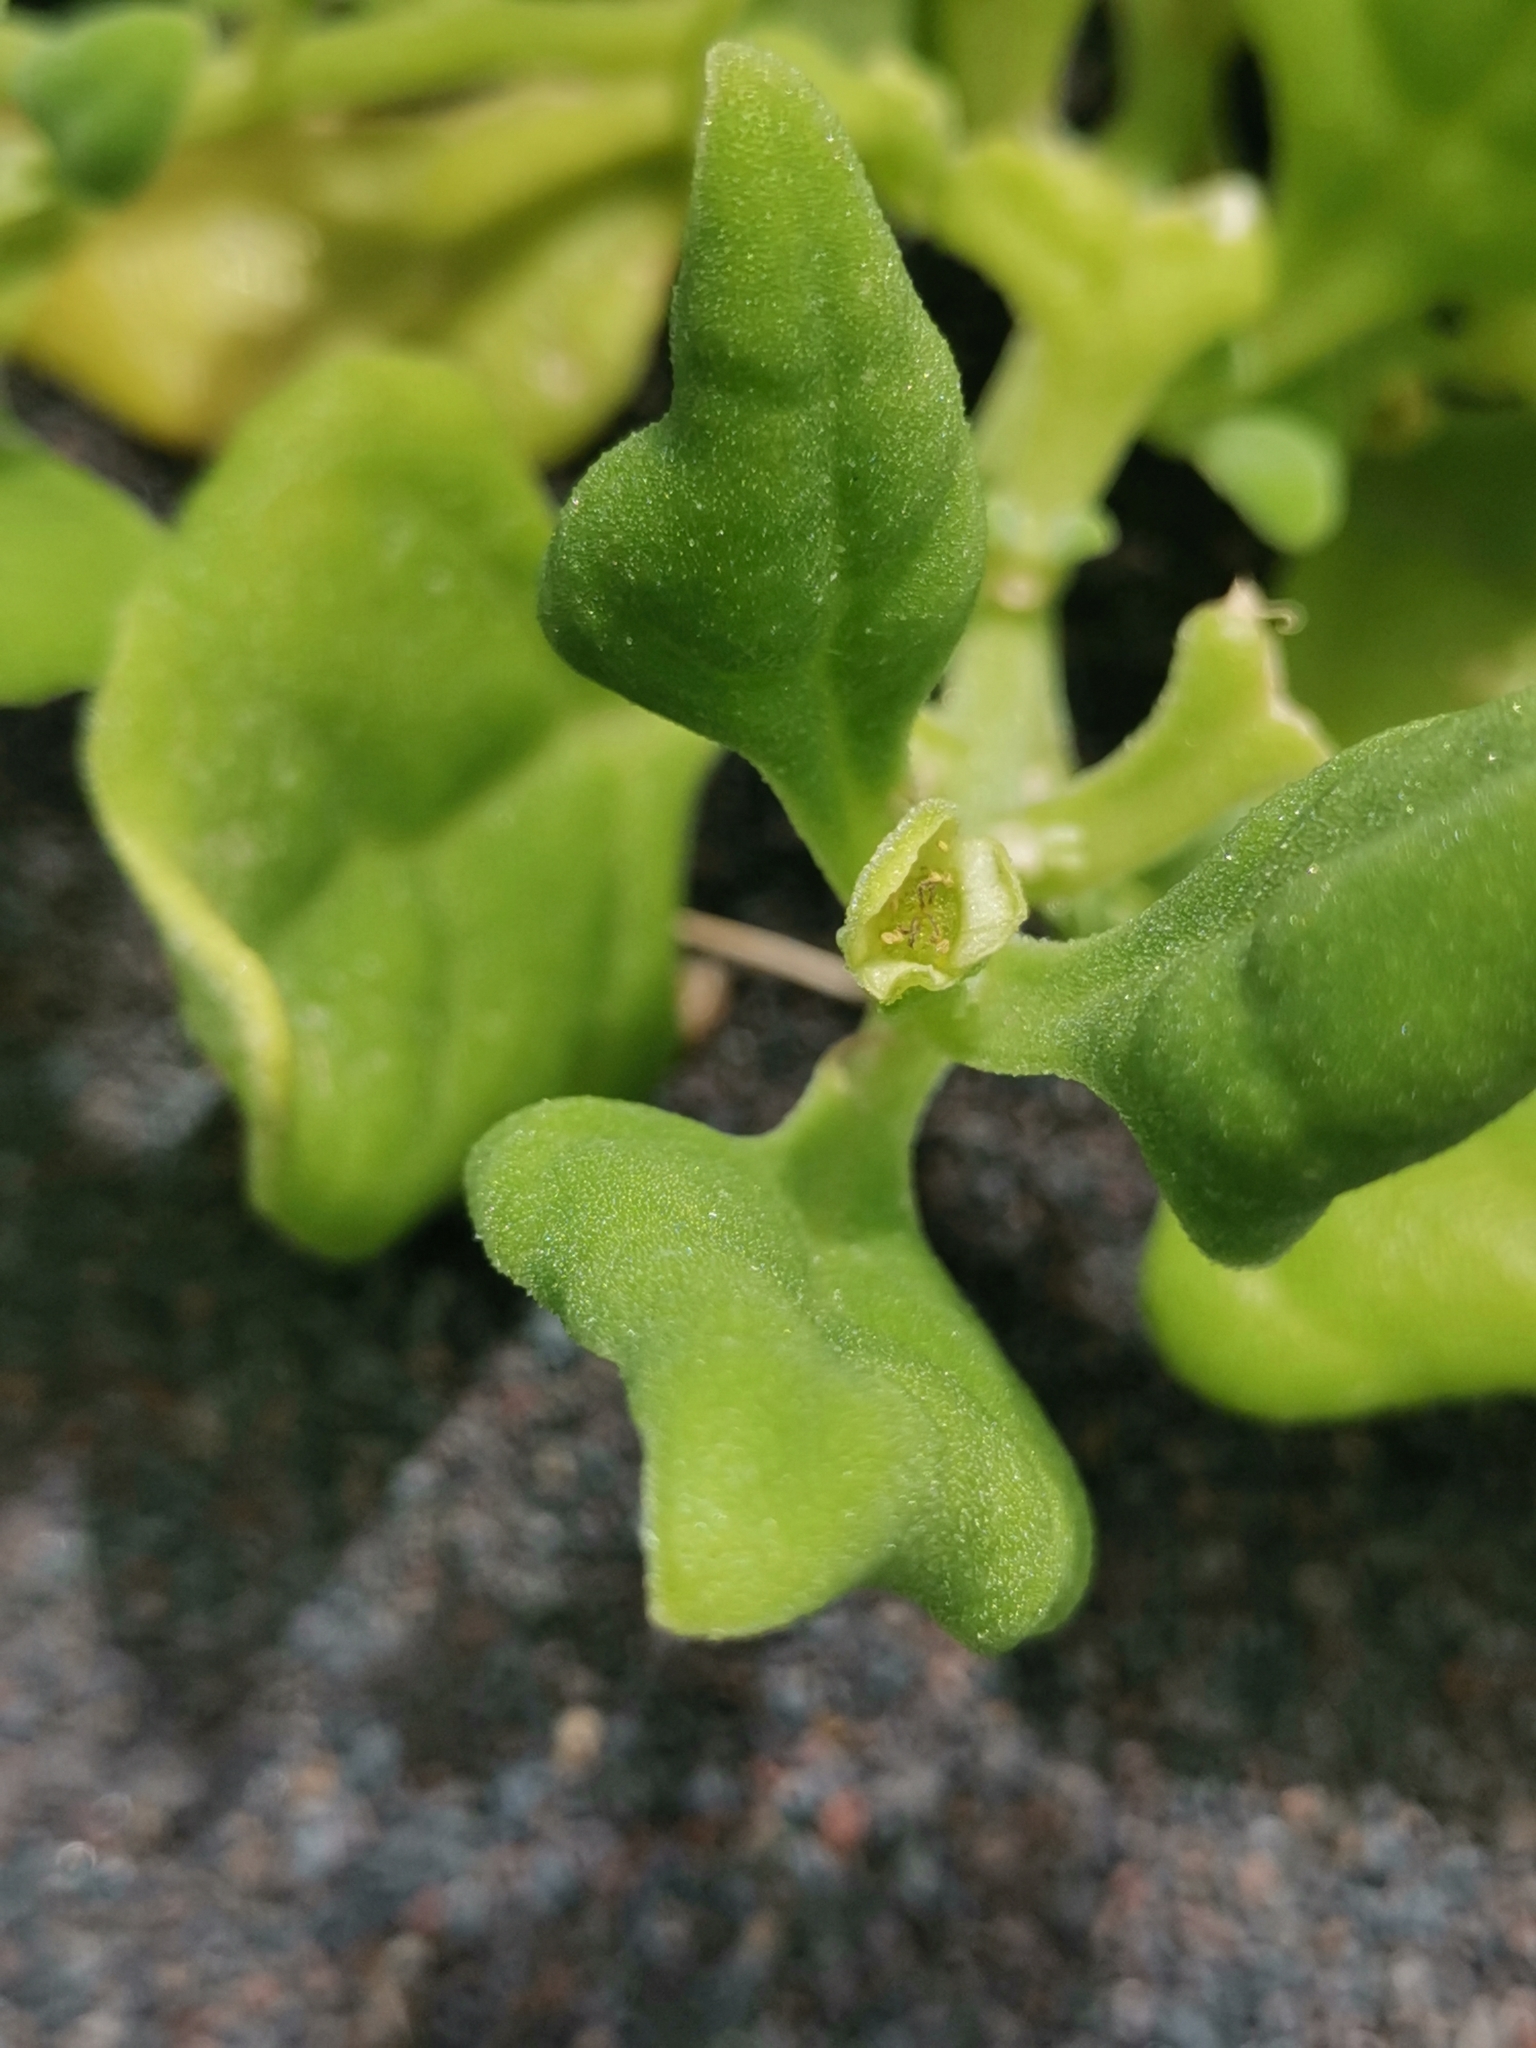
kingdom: Plantae
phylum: Tracheophyta
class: Magnoliopsida
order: Caryophyllales
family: Aizoaceae
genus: Tetragonia
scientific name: Tetragonia tetragonoides
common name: New zealand-spinach
